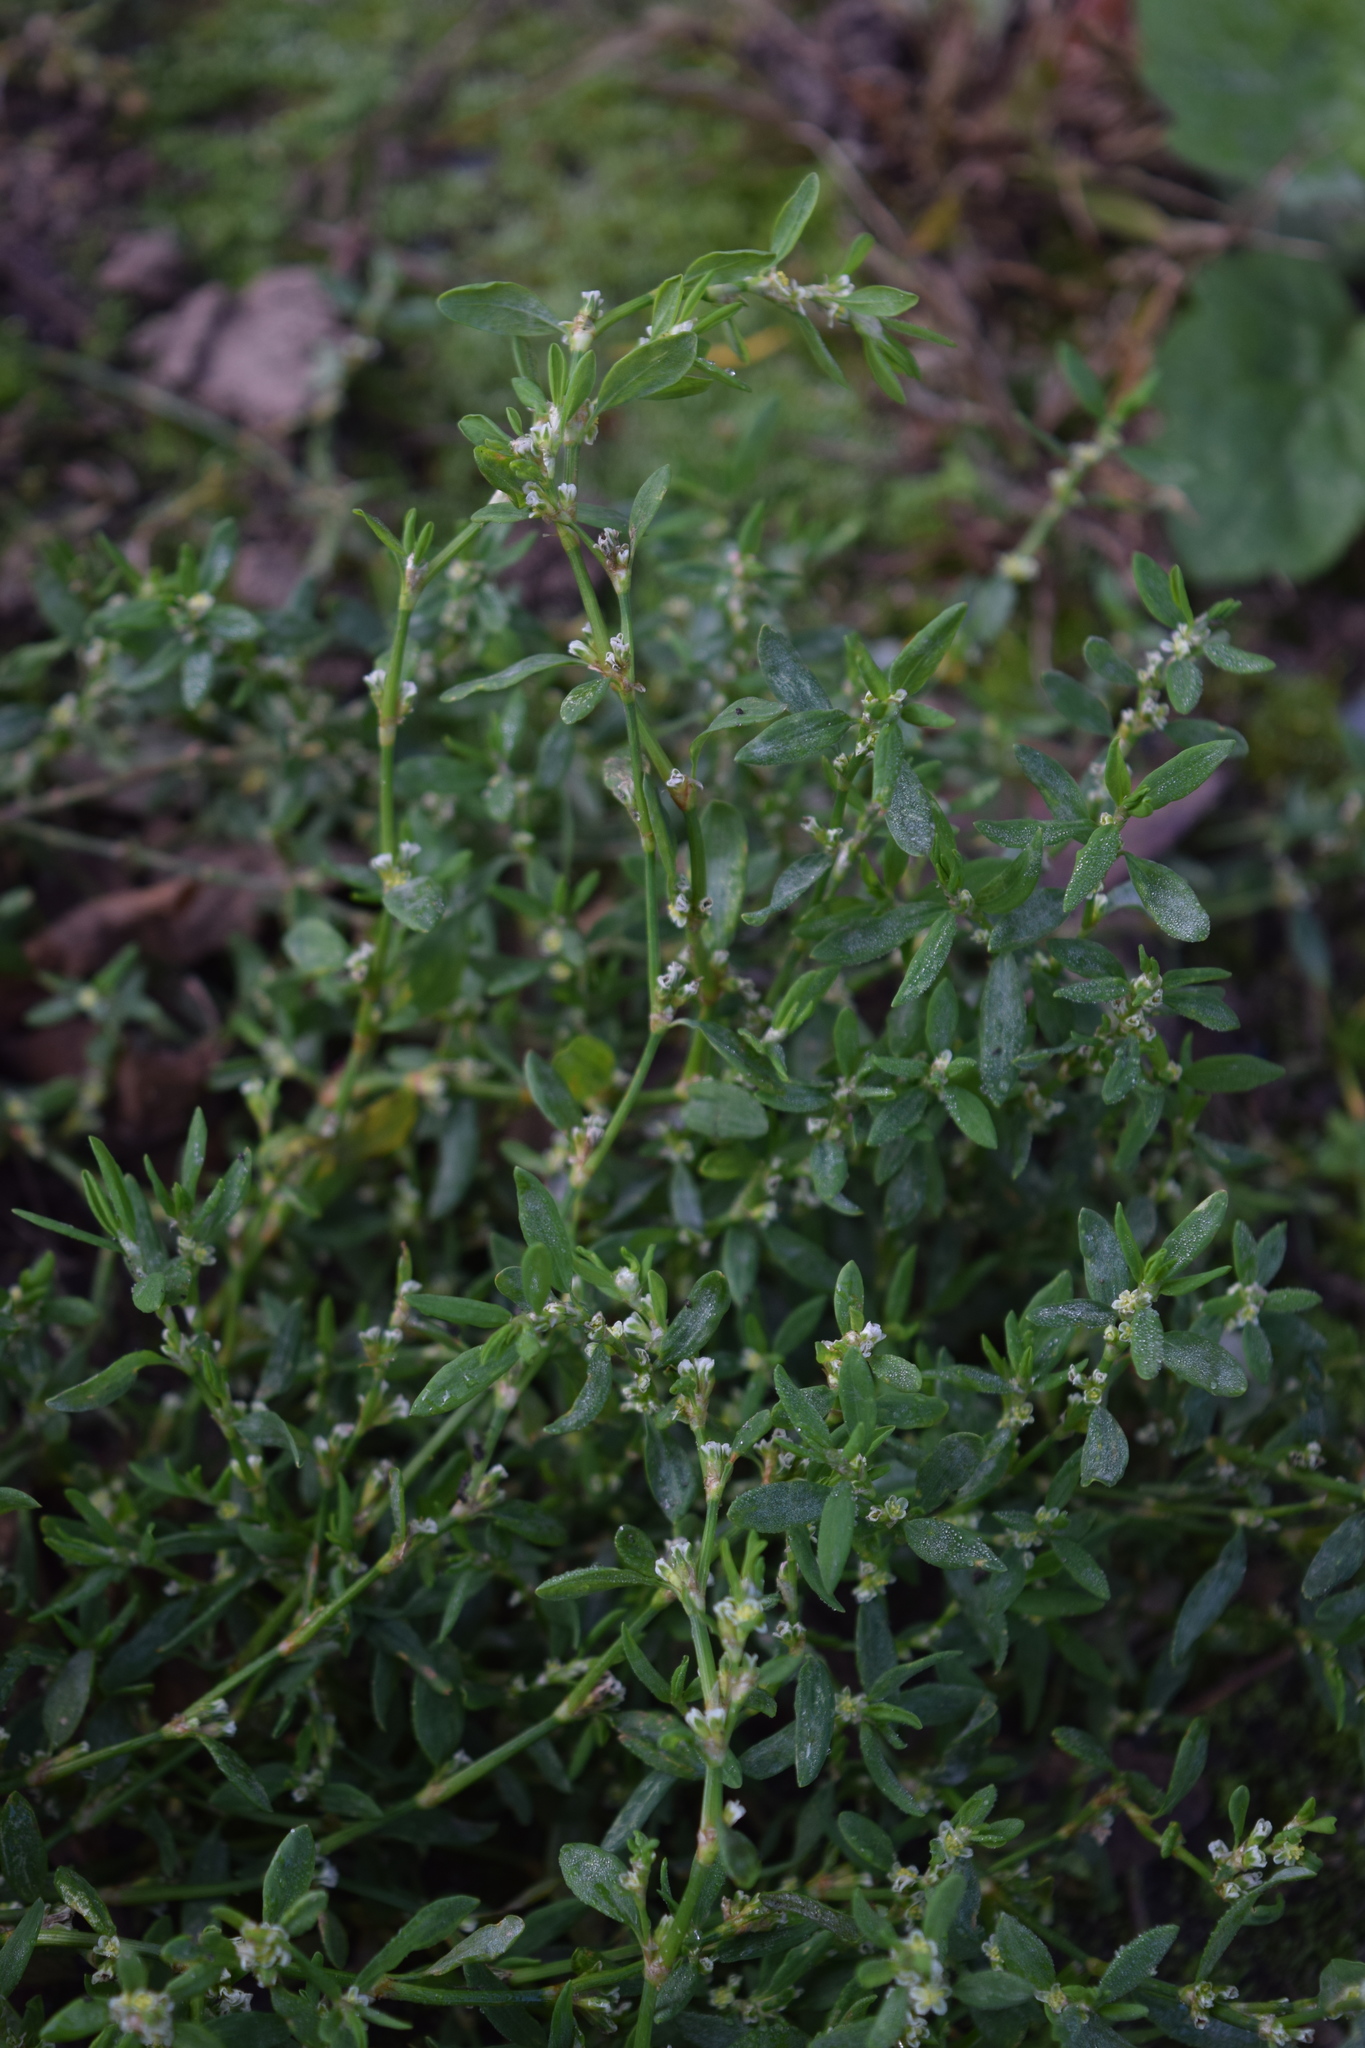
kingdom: Plantae
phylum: Tracheophyta
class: Magnoliopsida
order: Caryophyllales
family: Polygonaceae
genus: Polygonum
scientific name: Polygonum aviculare
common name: Prostrate knotweed
